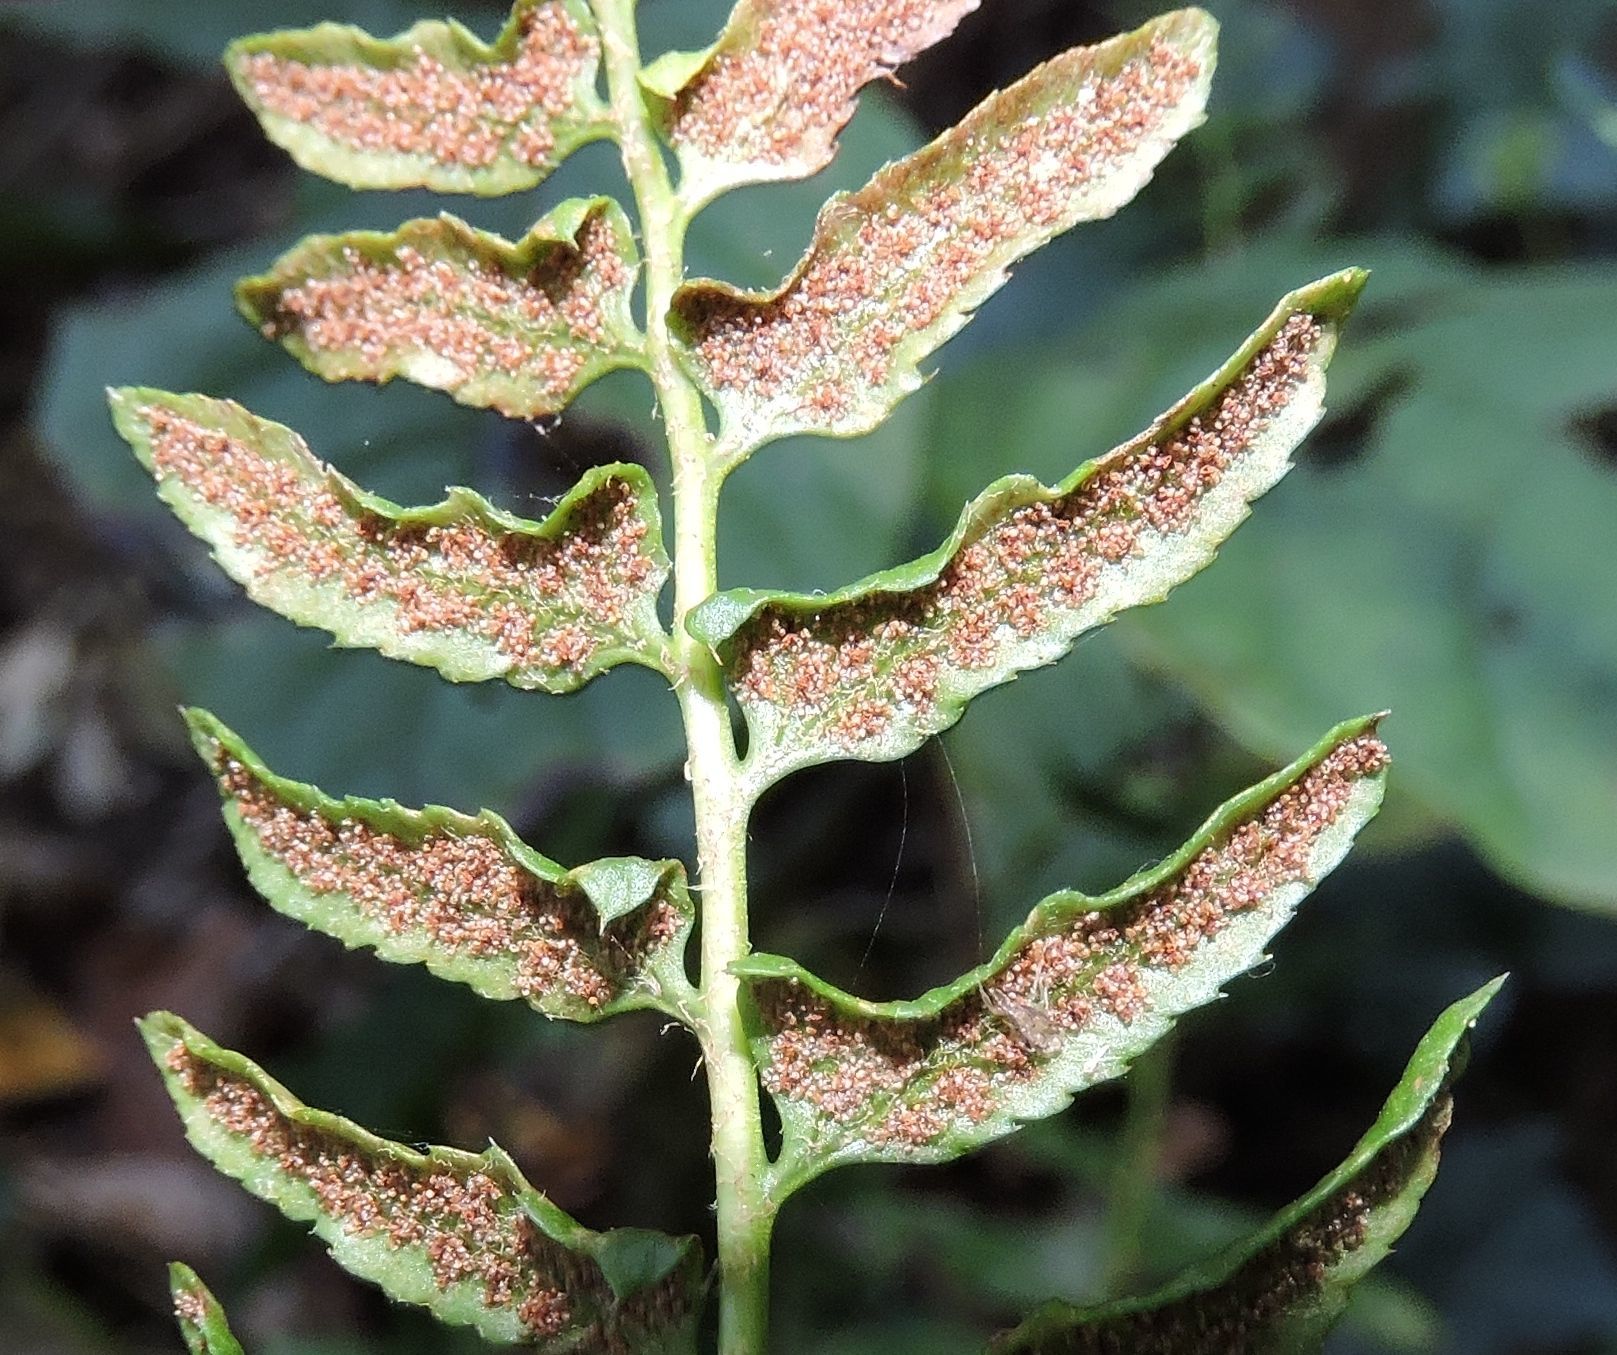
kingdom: Plantae
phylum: Tracheophyta
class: Polypodiopsida
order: Polypodiales
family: Dryopteridaceae
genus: Polystichum
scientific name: Polystichum acrostichoides
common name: Christmas fern
